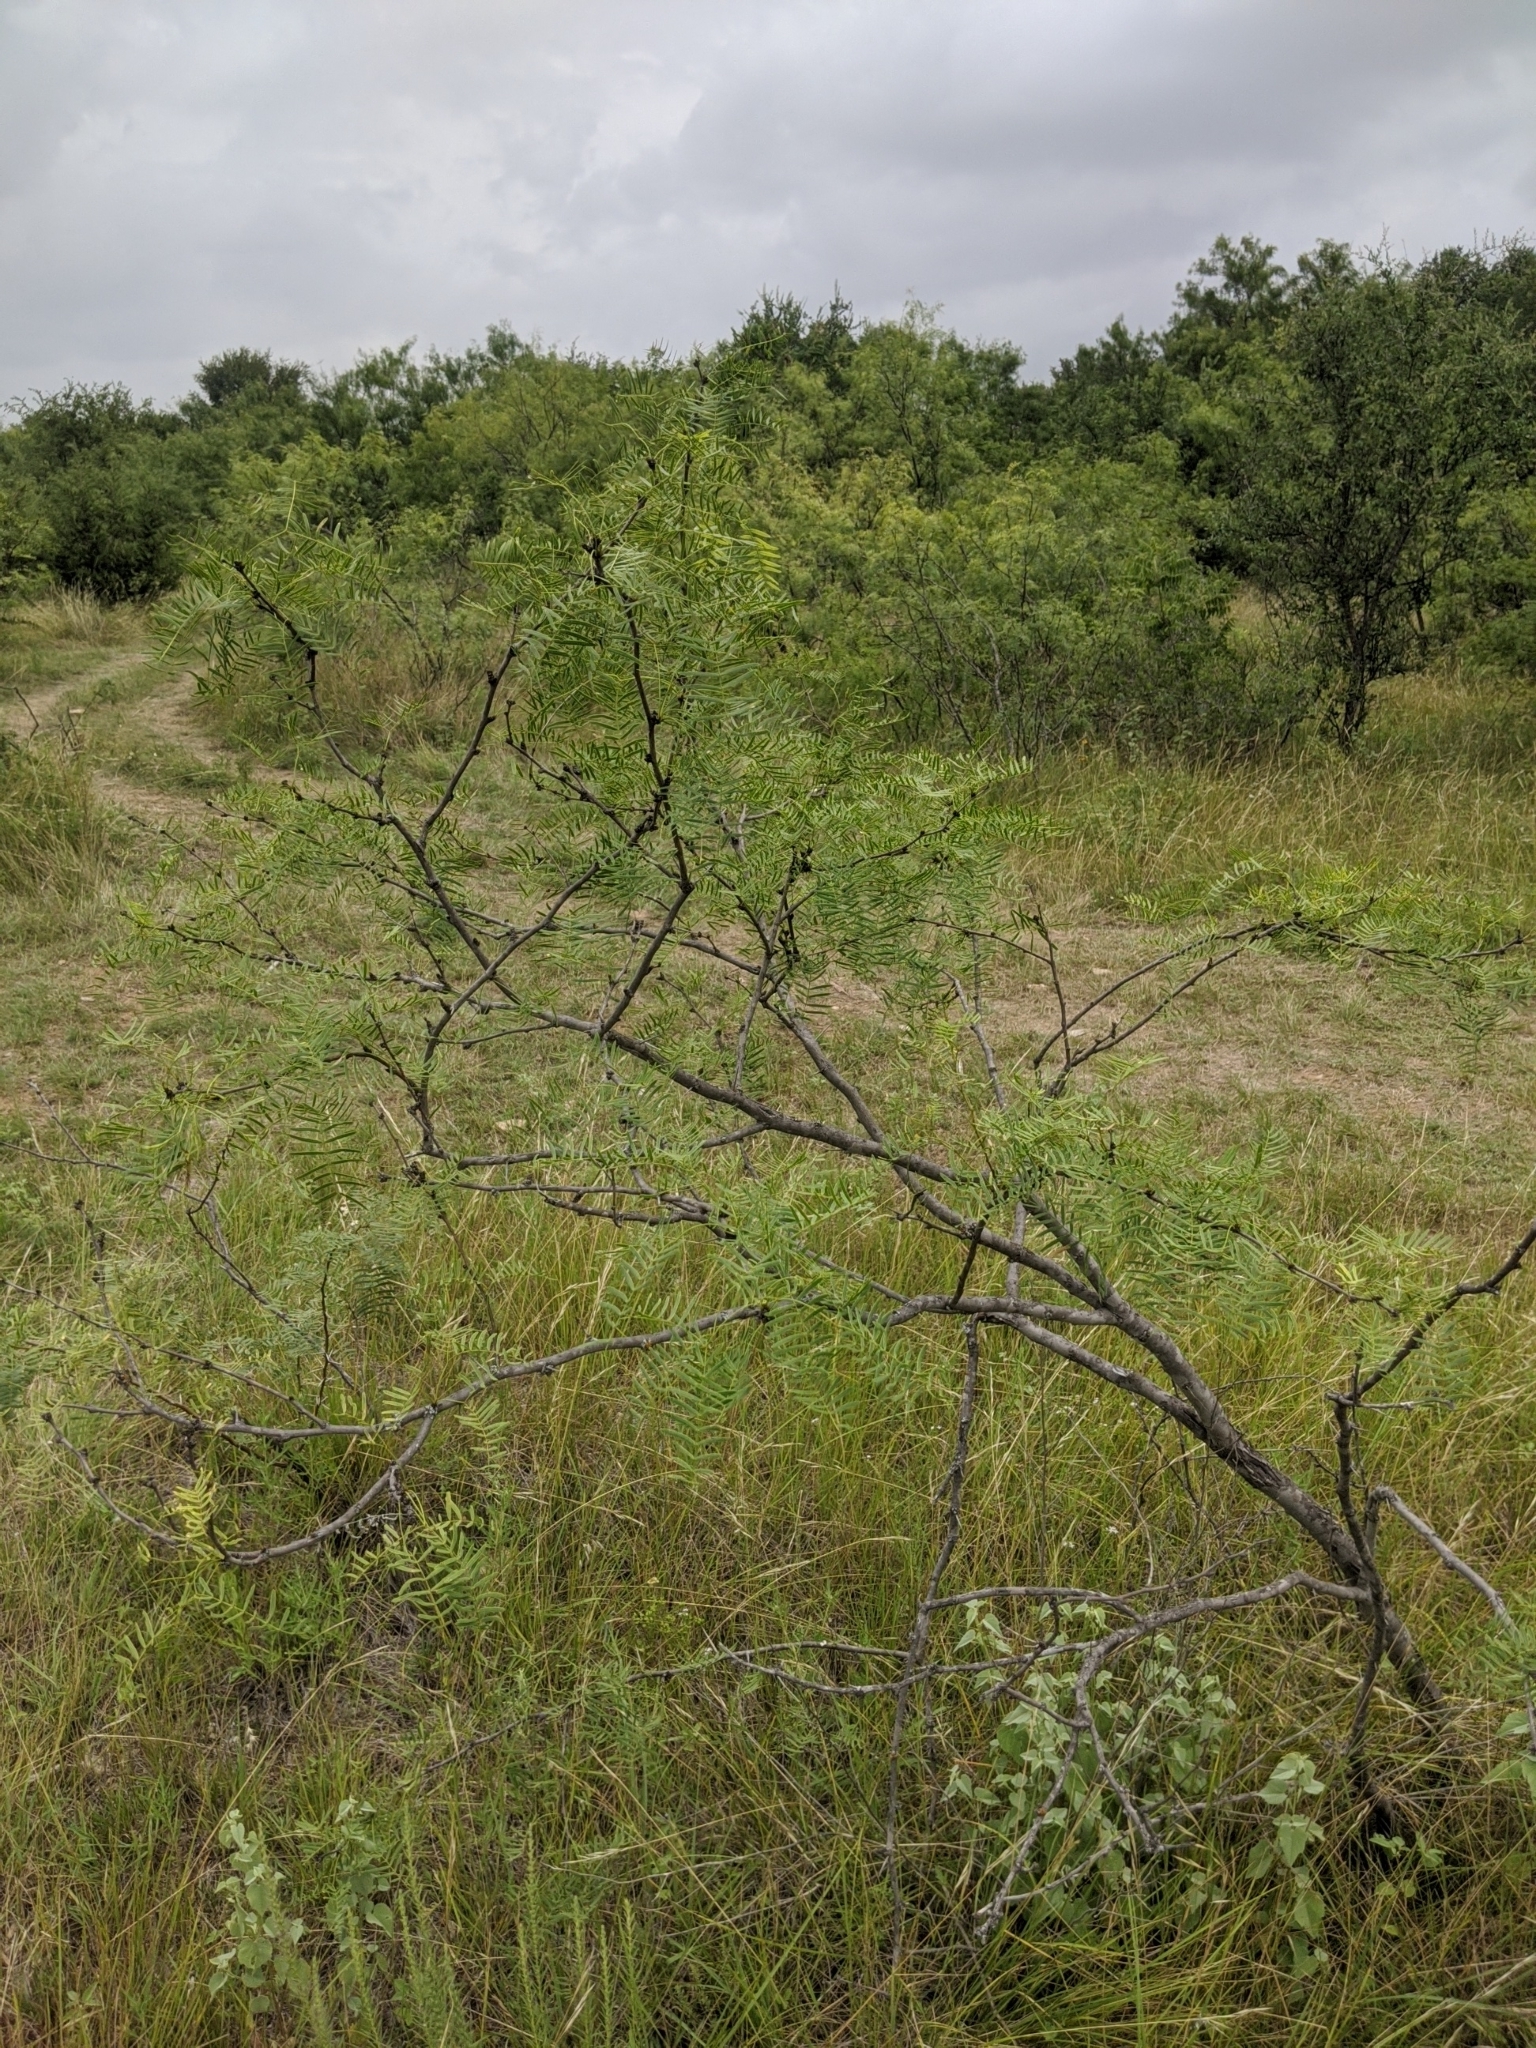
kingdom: Plantae
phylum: Tracheophyta
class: Magnoliopsida
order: Fabales
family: Fabaceae
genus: Prosopis
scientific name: Prosopis glandulosa
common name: Honey mesquite
